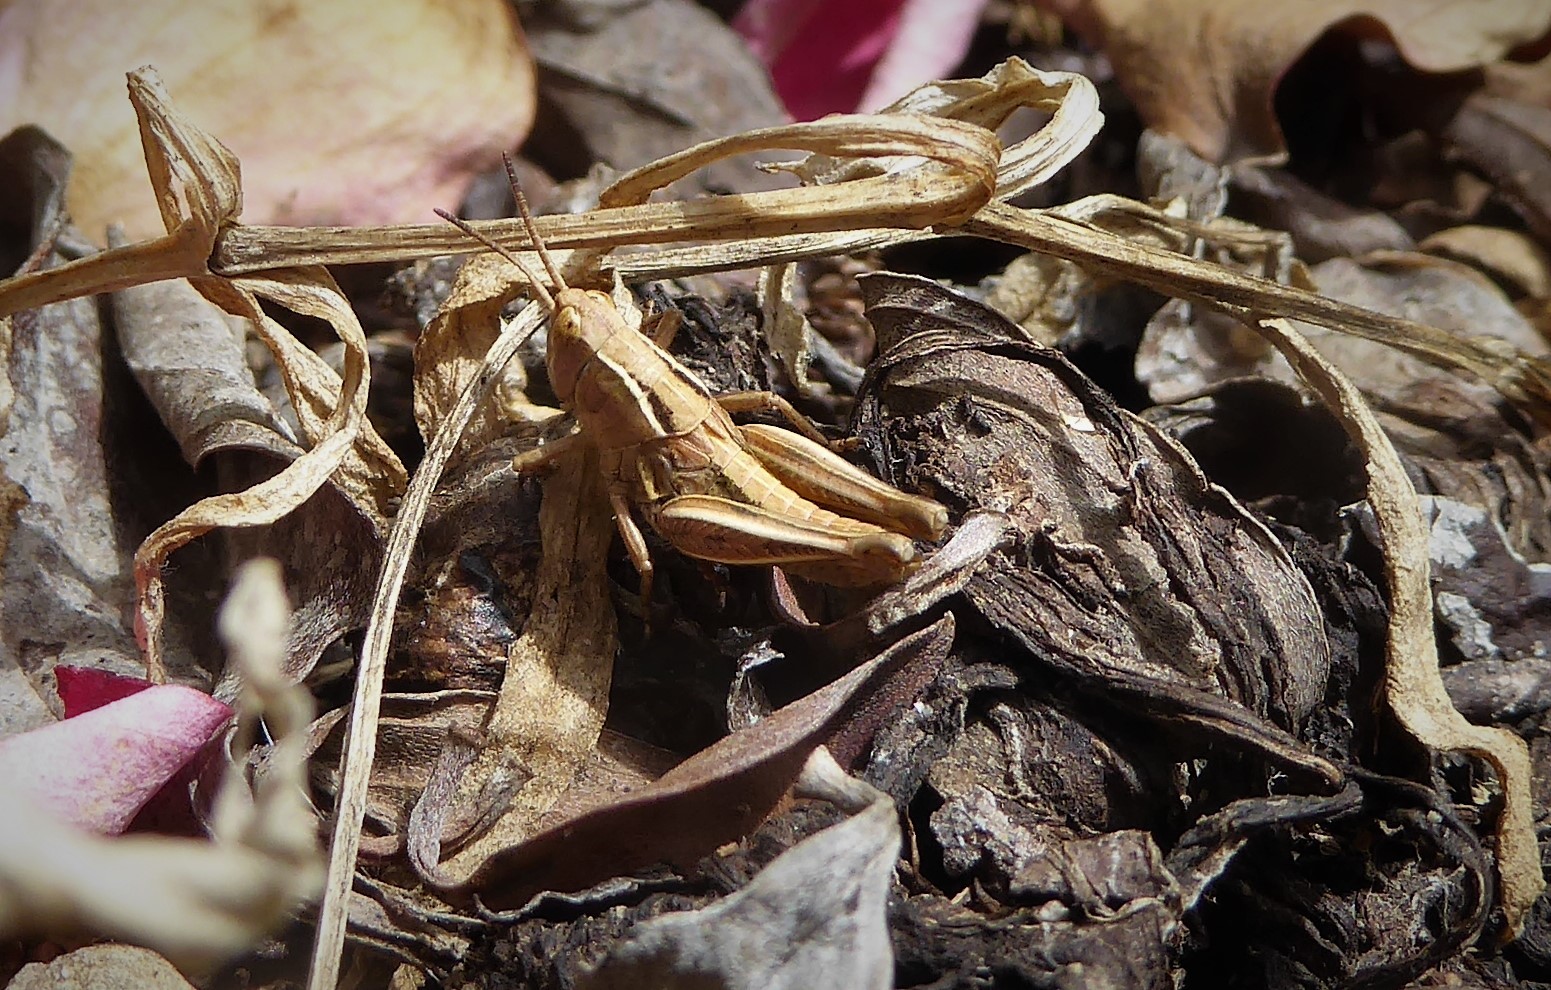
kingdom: Animalia
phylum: Arthropoda
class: Insecta
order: Orthoptera
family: Acrididae
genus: Phaulacridium
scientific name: Phaulacridium marginale
